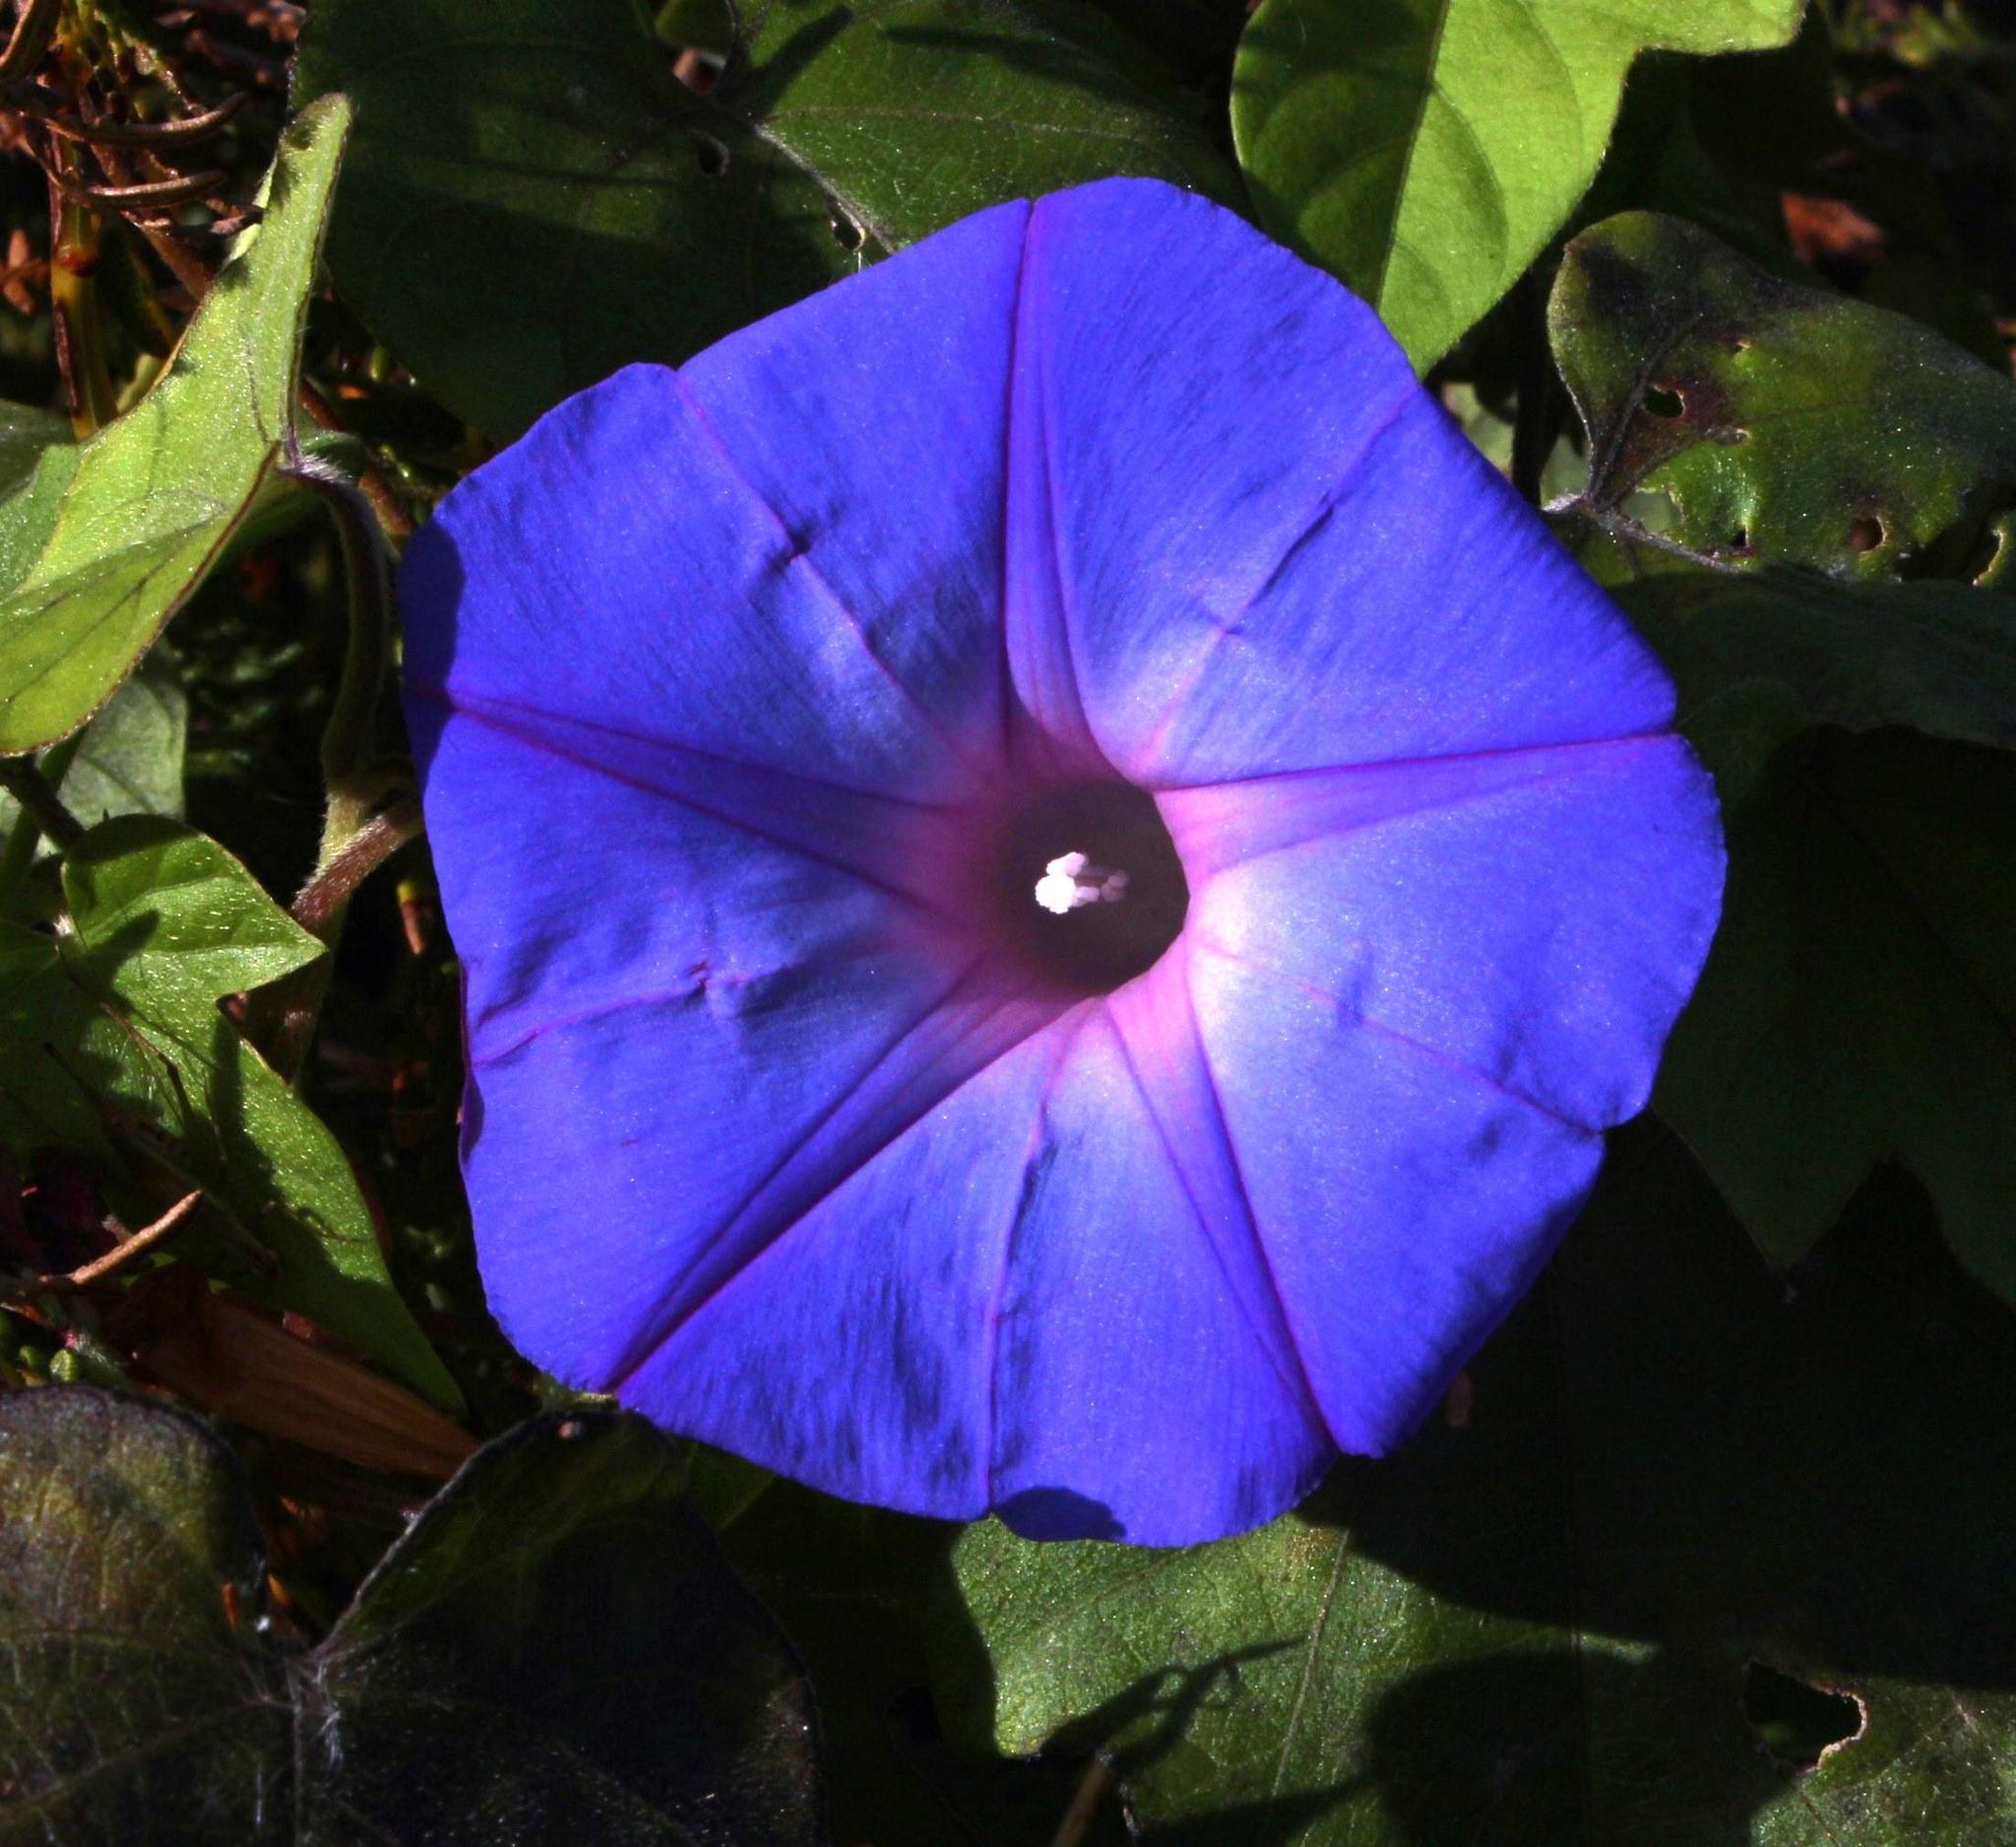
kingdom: Plantae
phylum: Tracheophyta
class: Magnoliopsida
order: Solanales
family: Convolvulaceae
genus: Ipomoea
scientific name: Ipomoea indica
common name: Blue dawnflower
